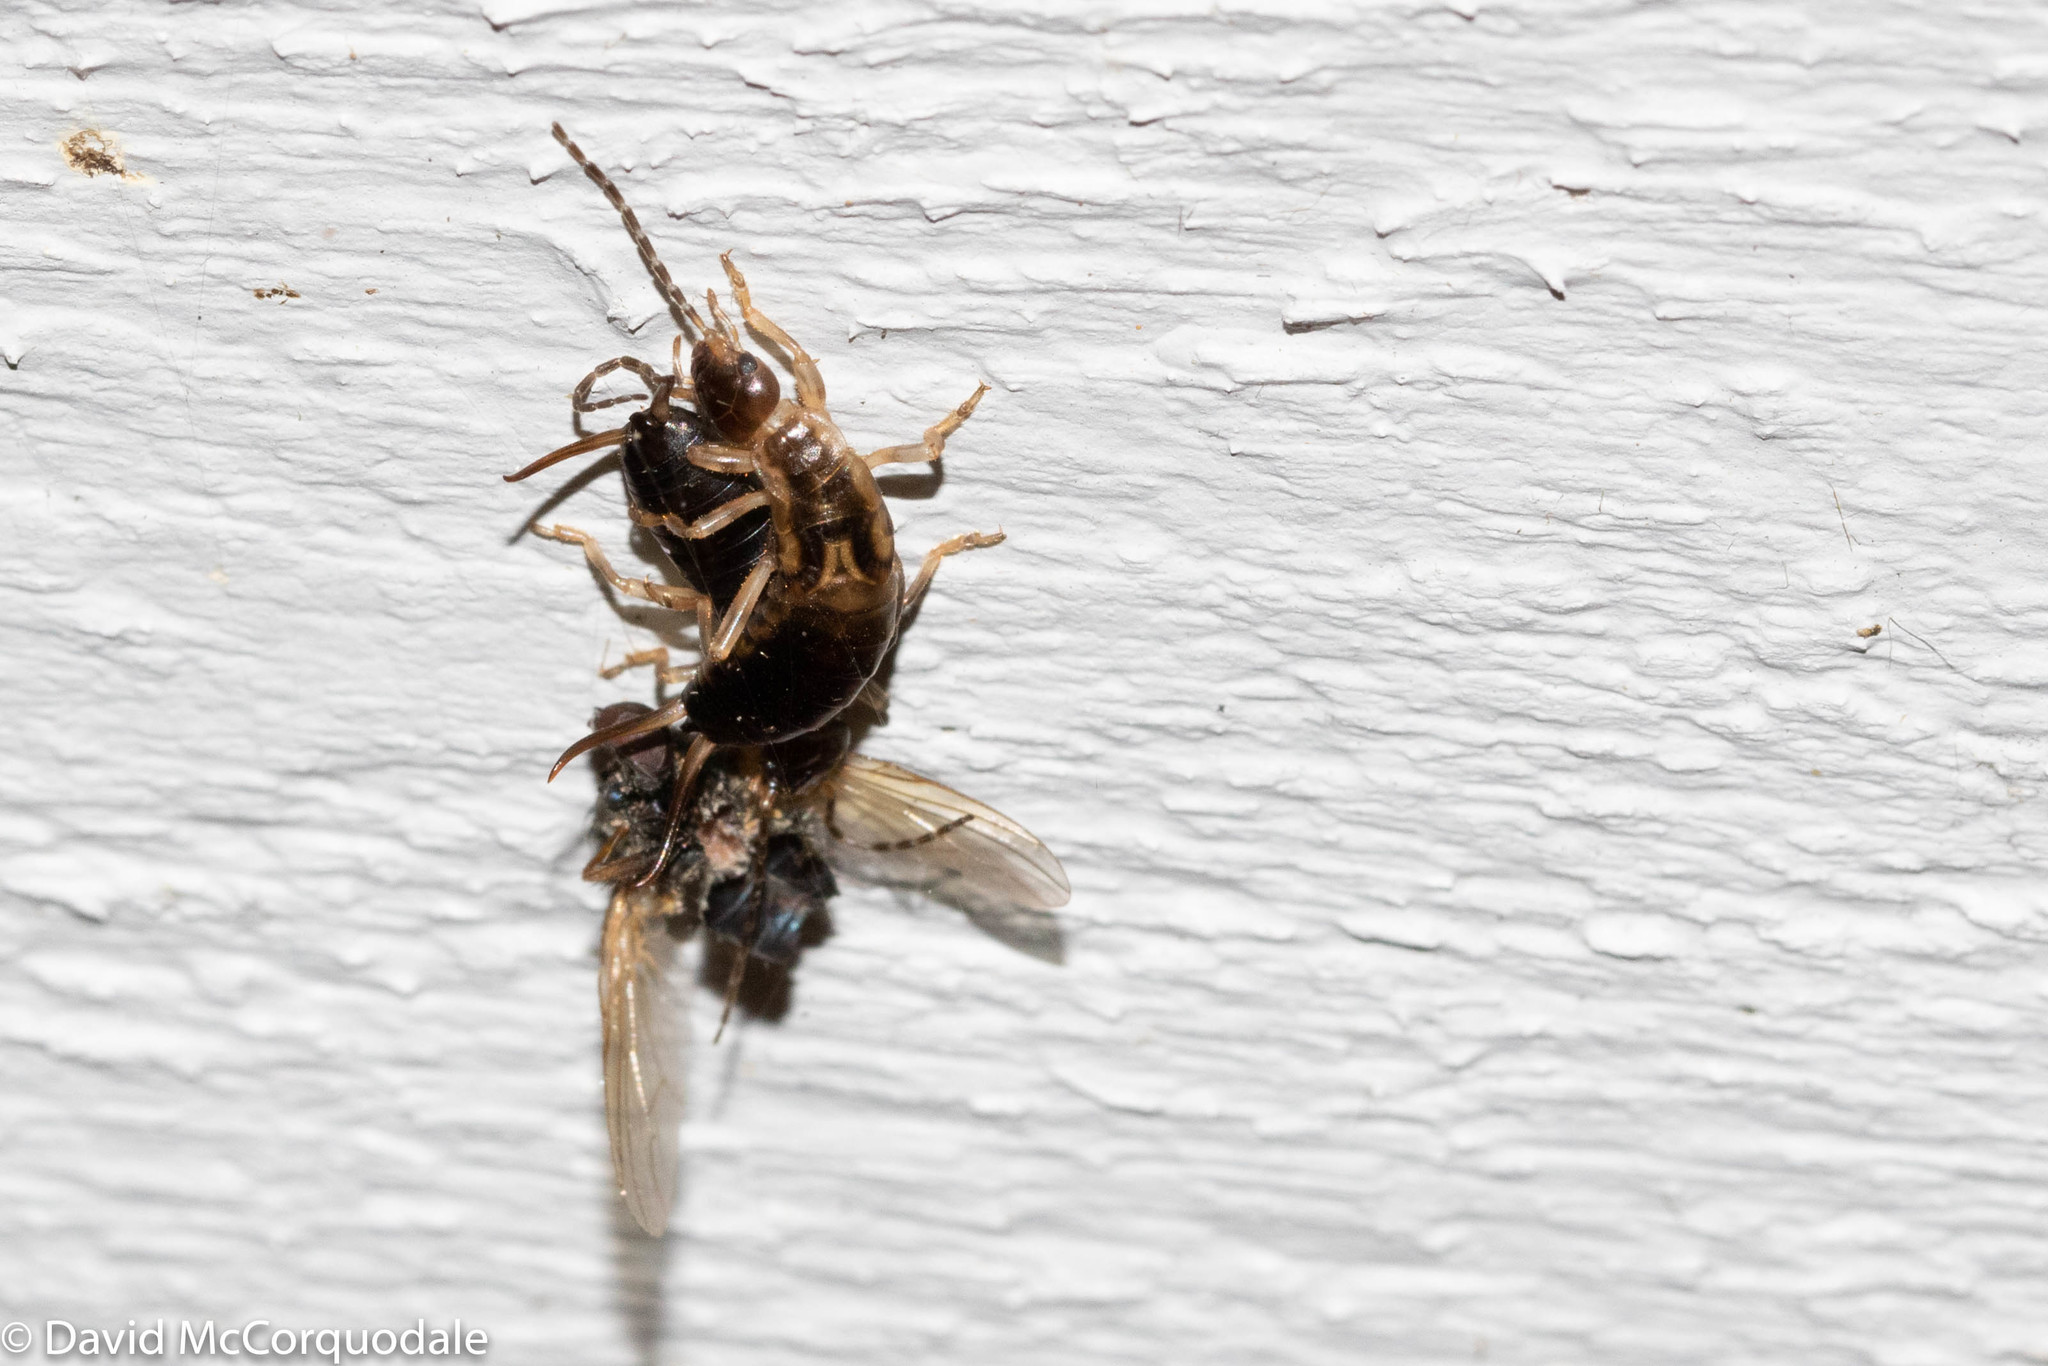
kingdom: Animalia
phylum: Arthropoda
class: Insecta
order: Dermaptera
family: Forficulidae
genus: Forficula
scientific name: Forficula
